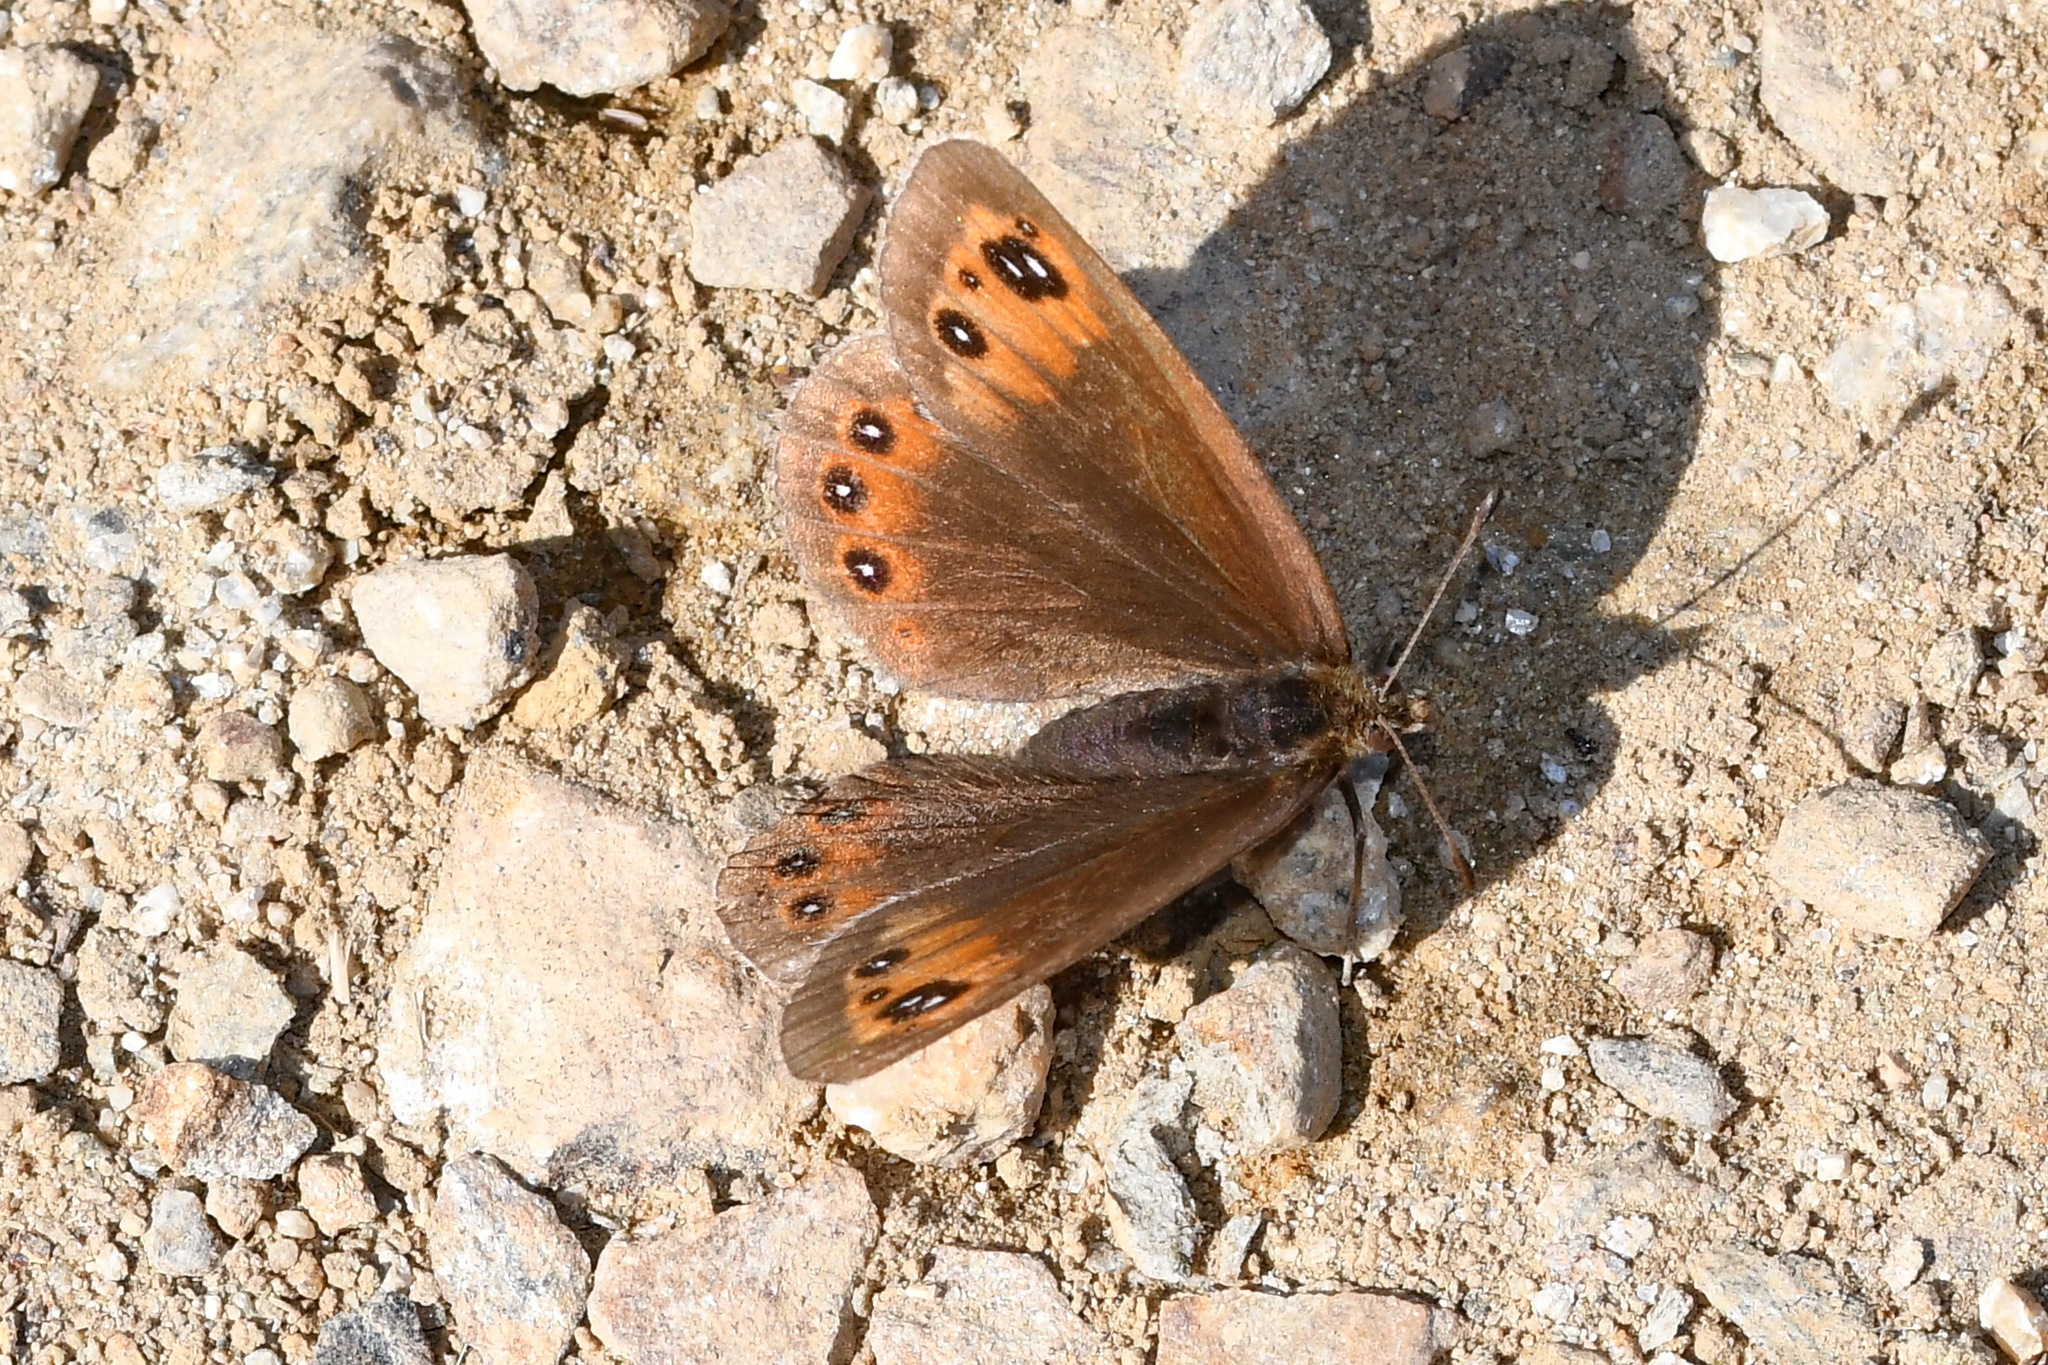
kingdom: Animalia
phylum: Arthropoda
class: Insecta
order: Lepidoptera
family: Nymphalidae
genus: Erebia
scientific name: Erebia meolans
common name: Piedmont ringlet
